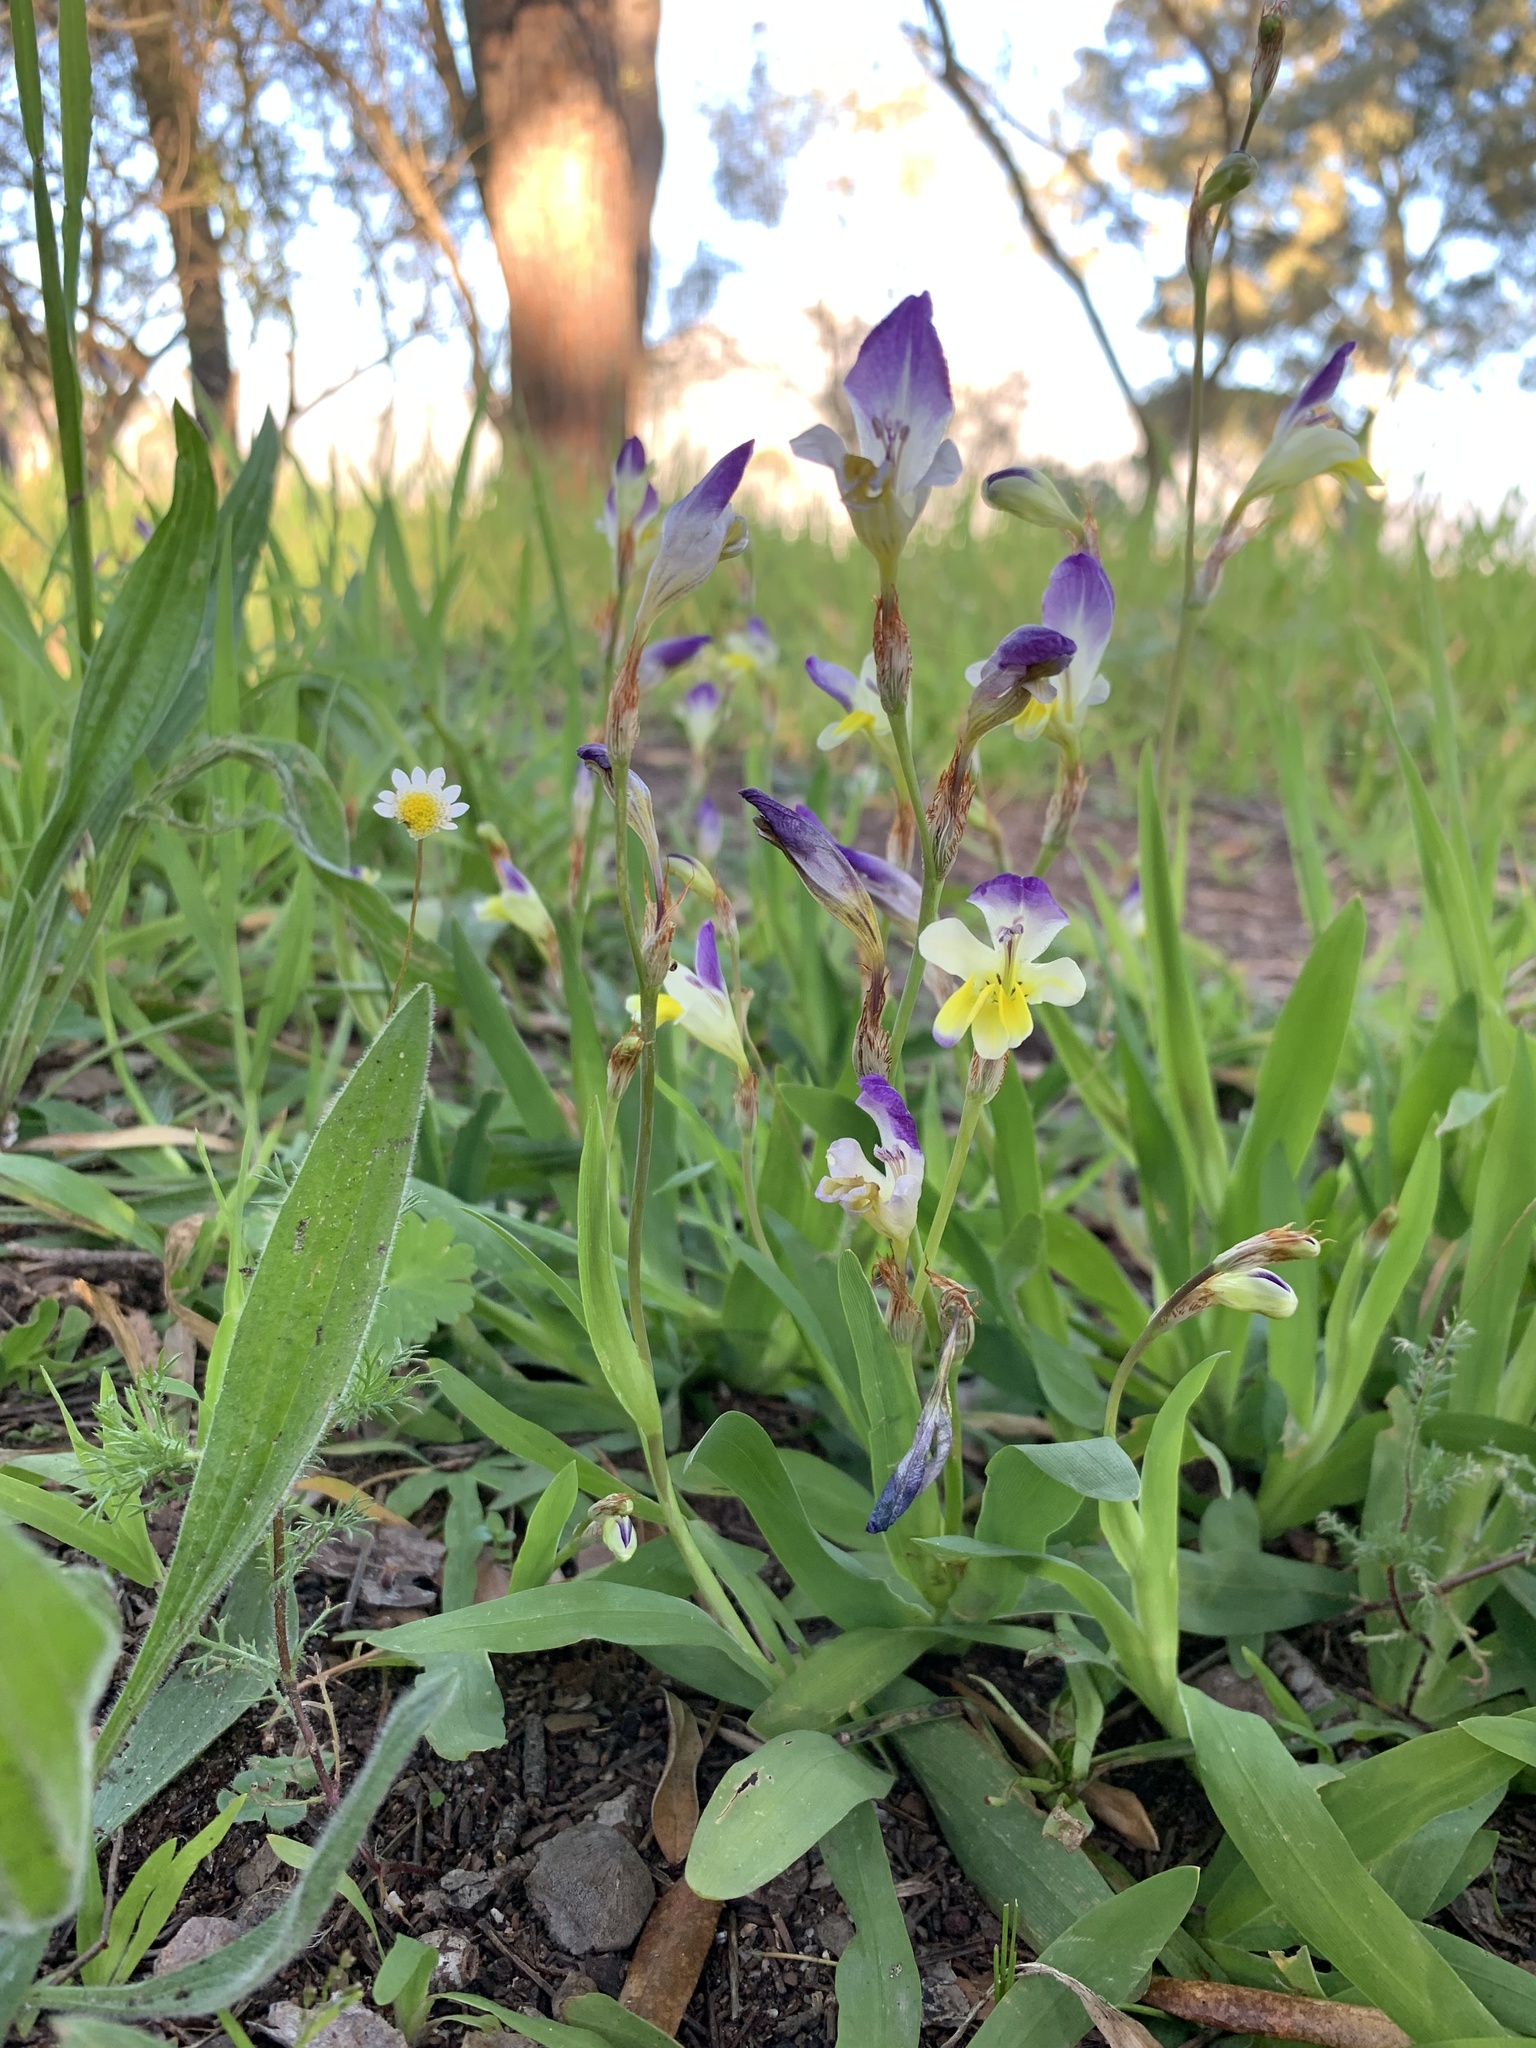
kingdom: Plantae
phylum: Tracheophyta
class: Liliopsida
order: Asparagales
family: Iridaceae
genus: Sparaxis
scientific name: Sparaxis villosa
